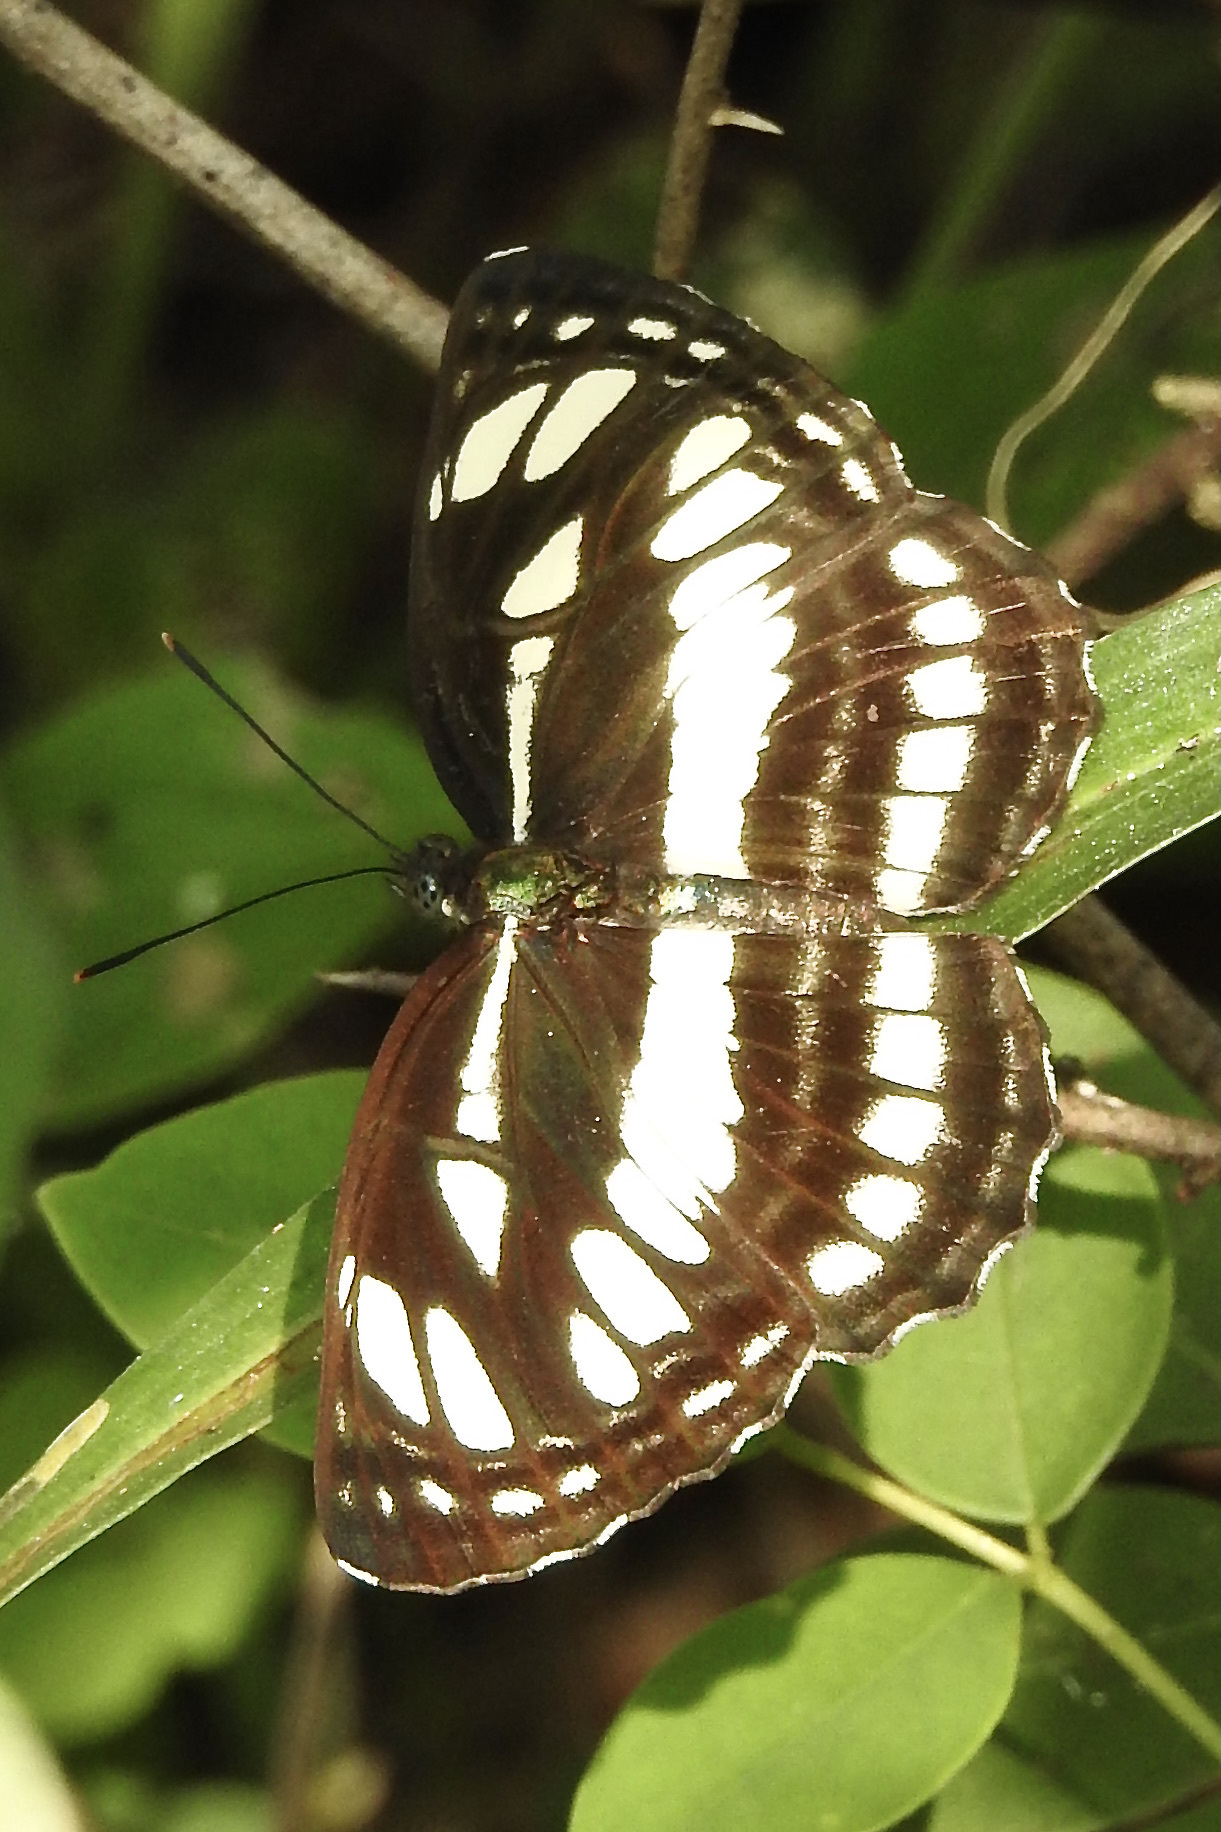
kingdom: Animalia
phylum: Arthropoda
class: Insecta
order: Lepidoptera
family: Nymphalidae
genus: Neptis
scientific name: Neptis hylas
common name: Common sailer
